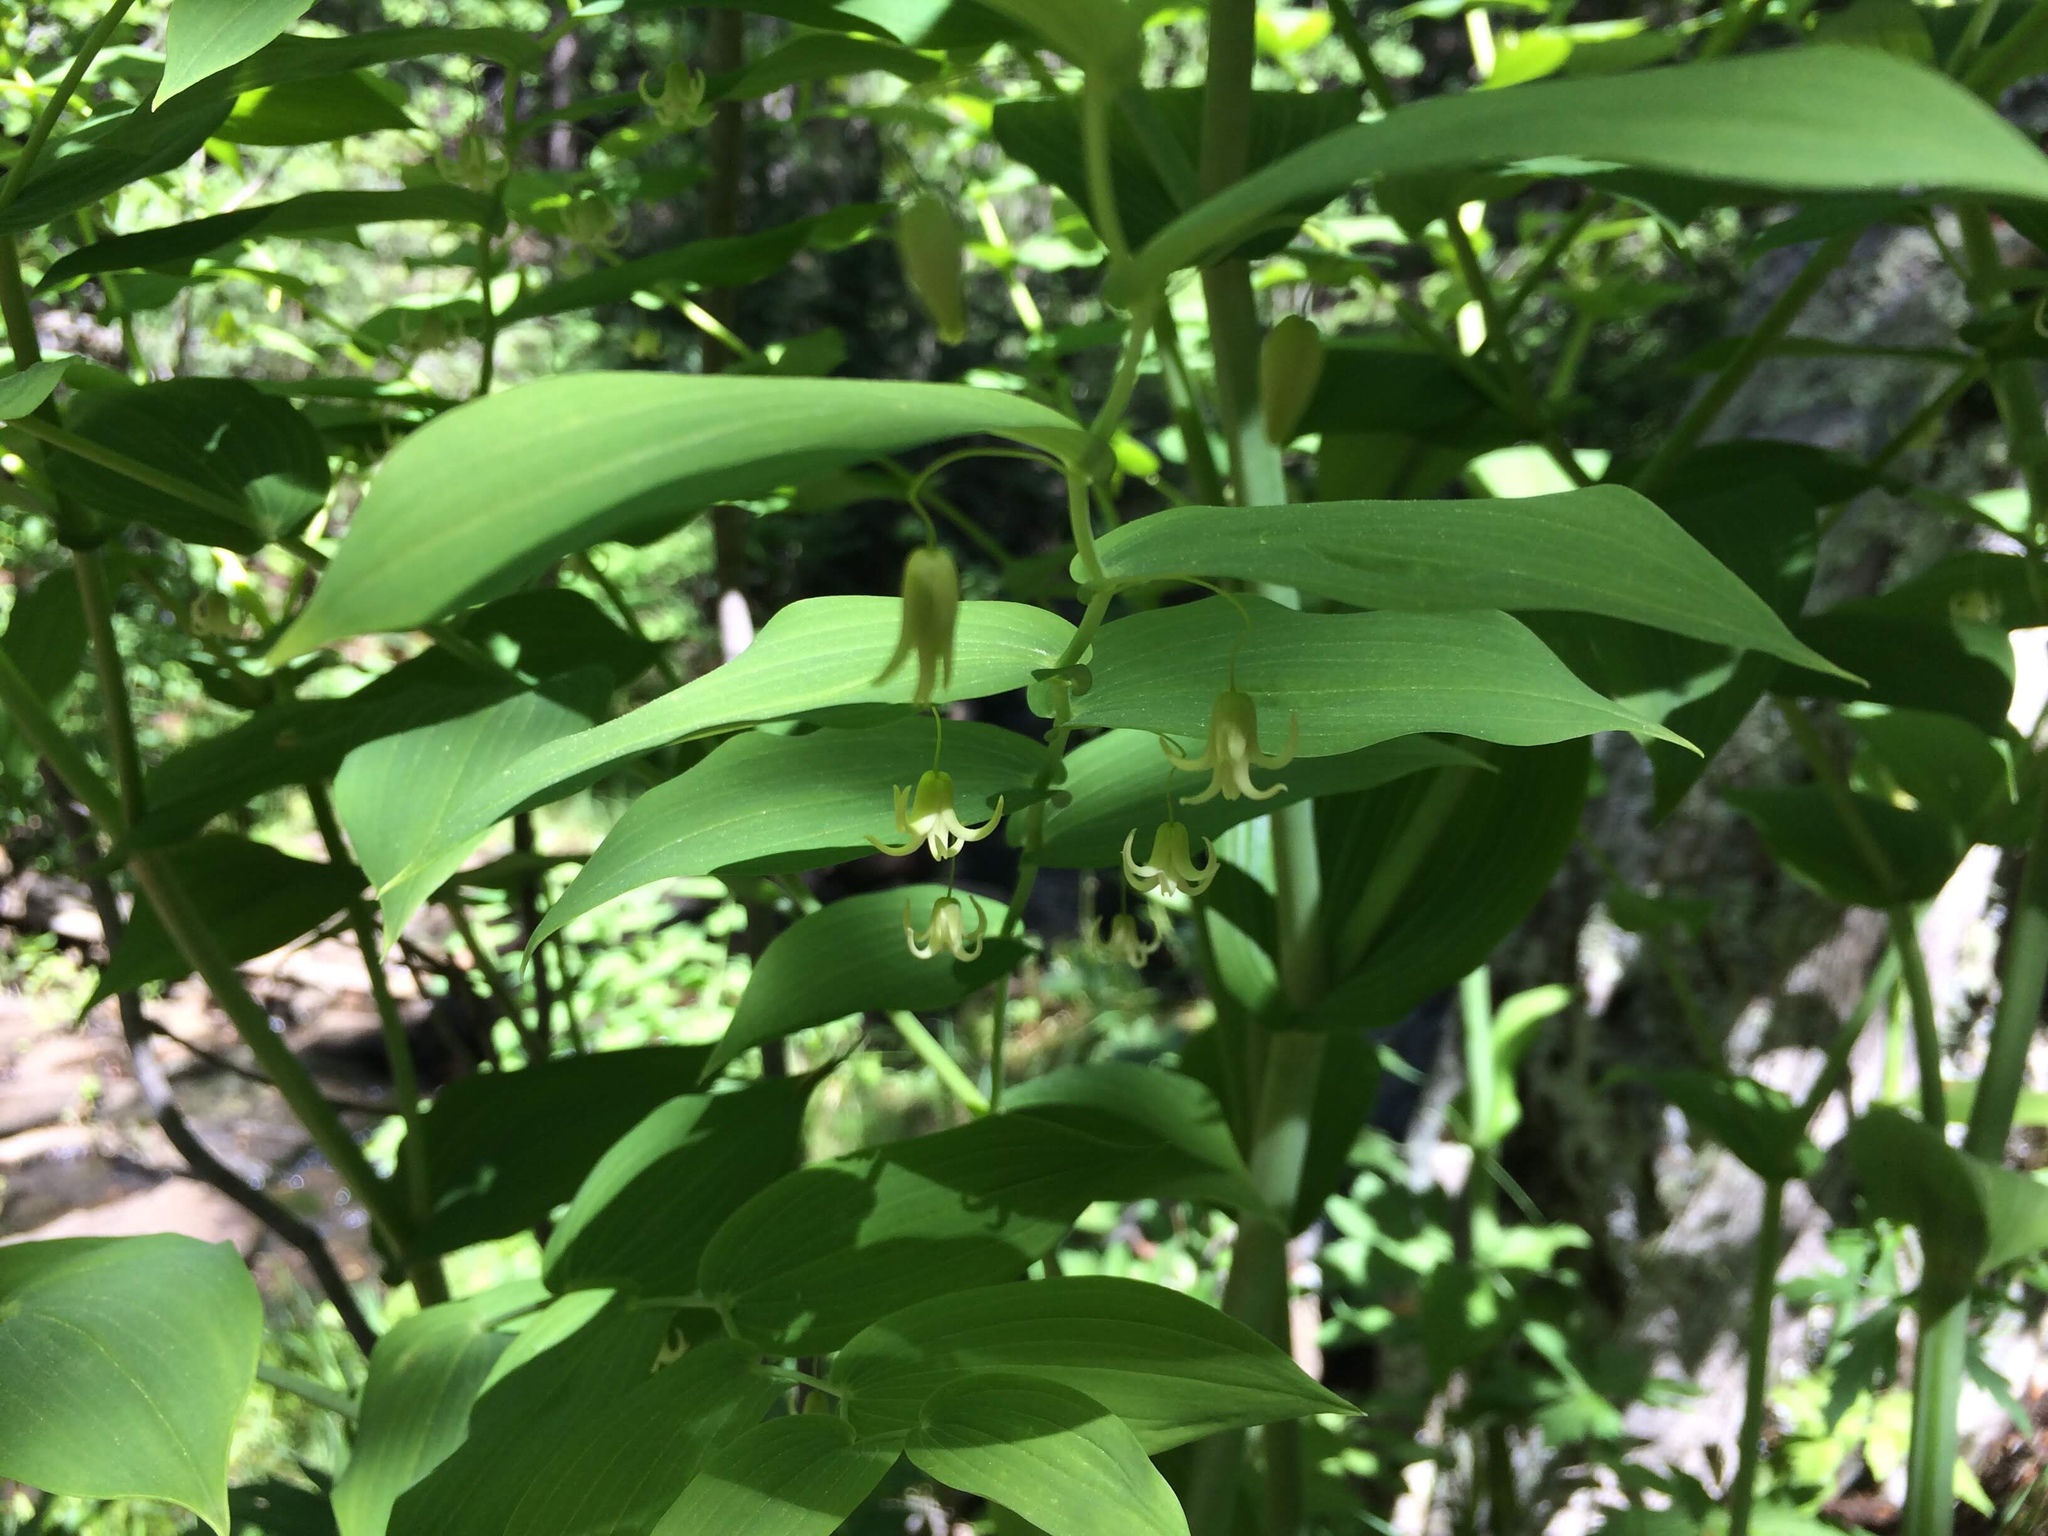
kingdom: Plantae
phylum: Tracheophyta
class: Liliopsida
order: Liliales
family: Liliaceae
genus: Streptopus
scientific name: Streptopus amplexifolius
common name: Clasp twisted stalk
